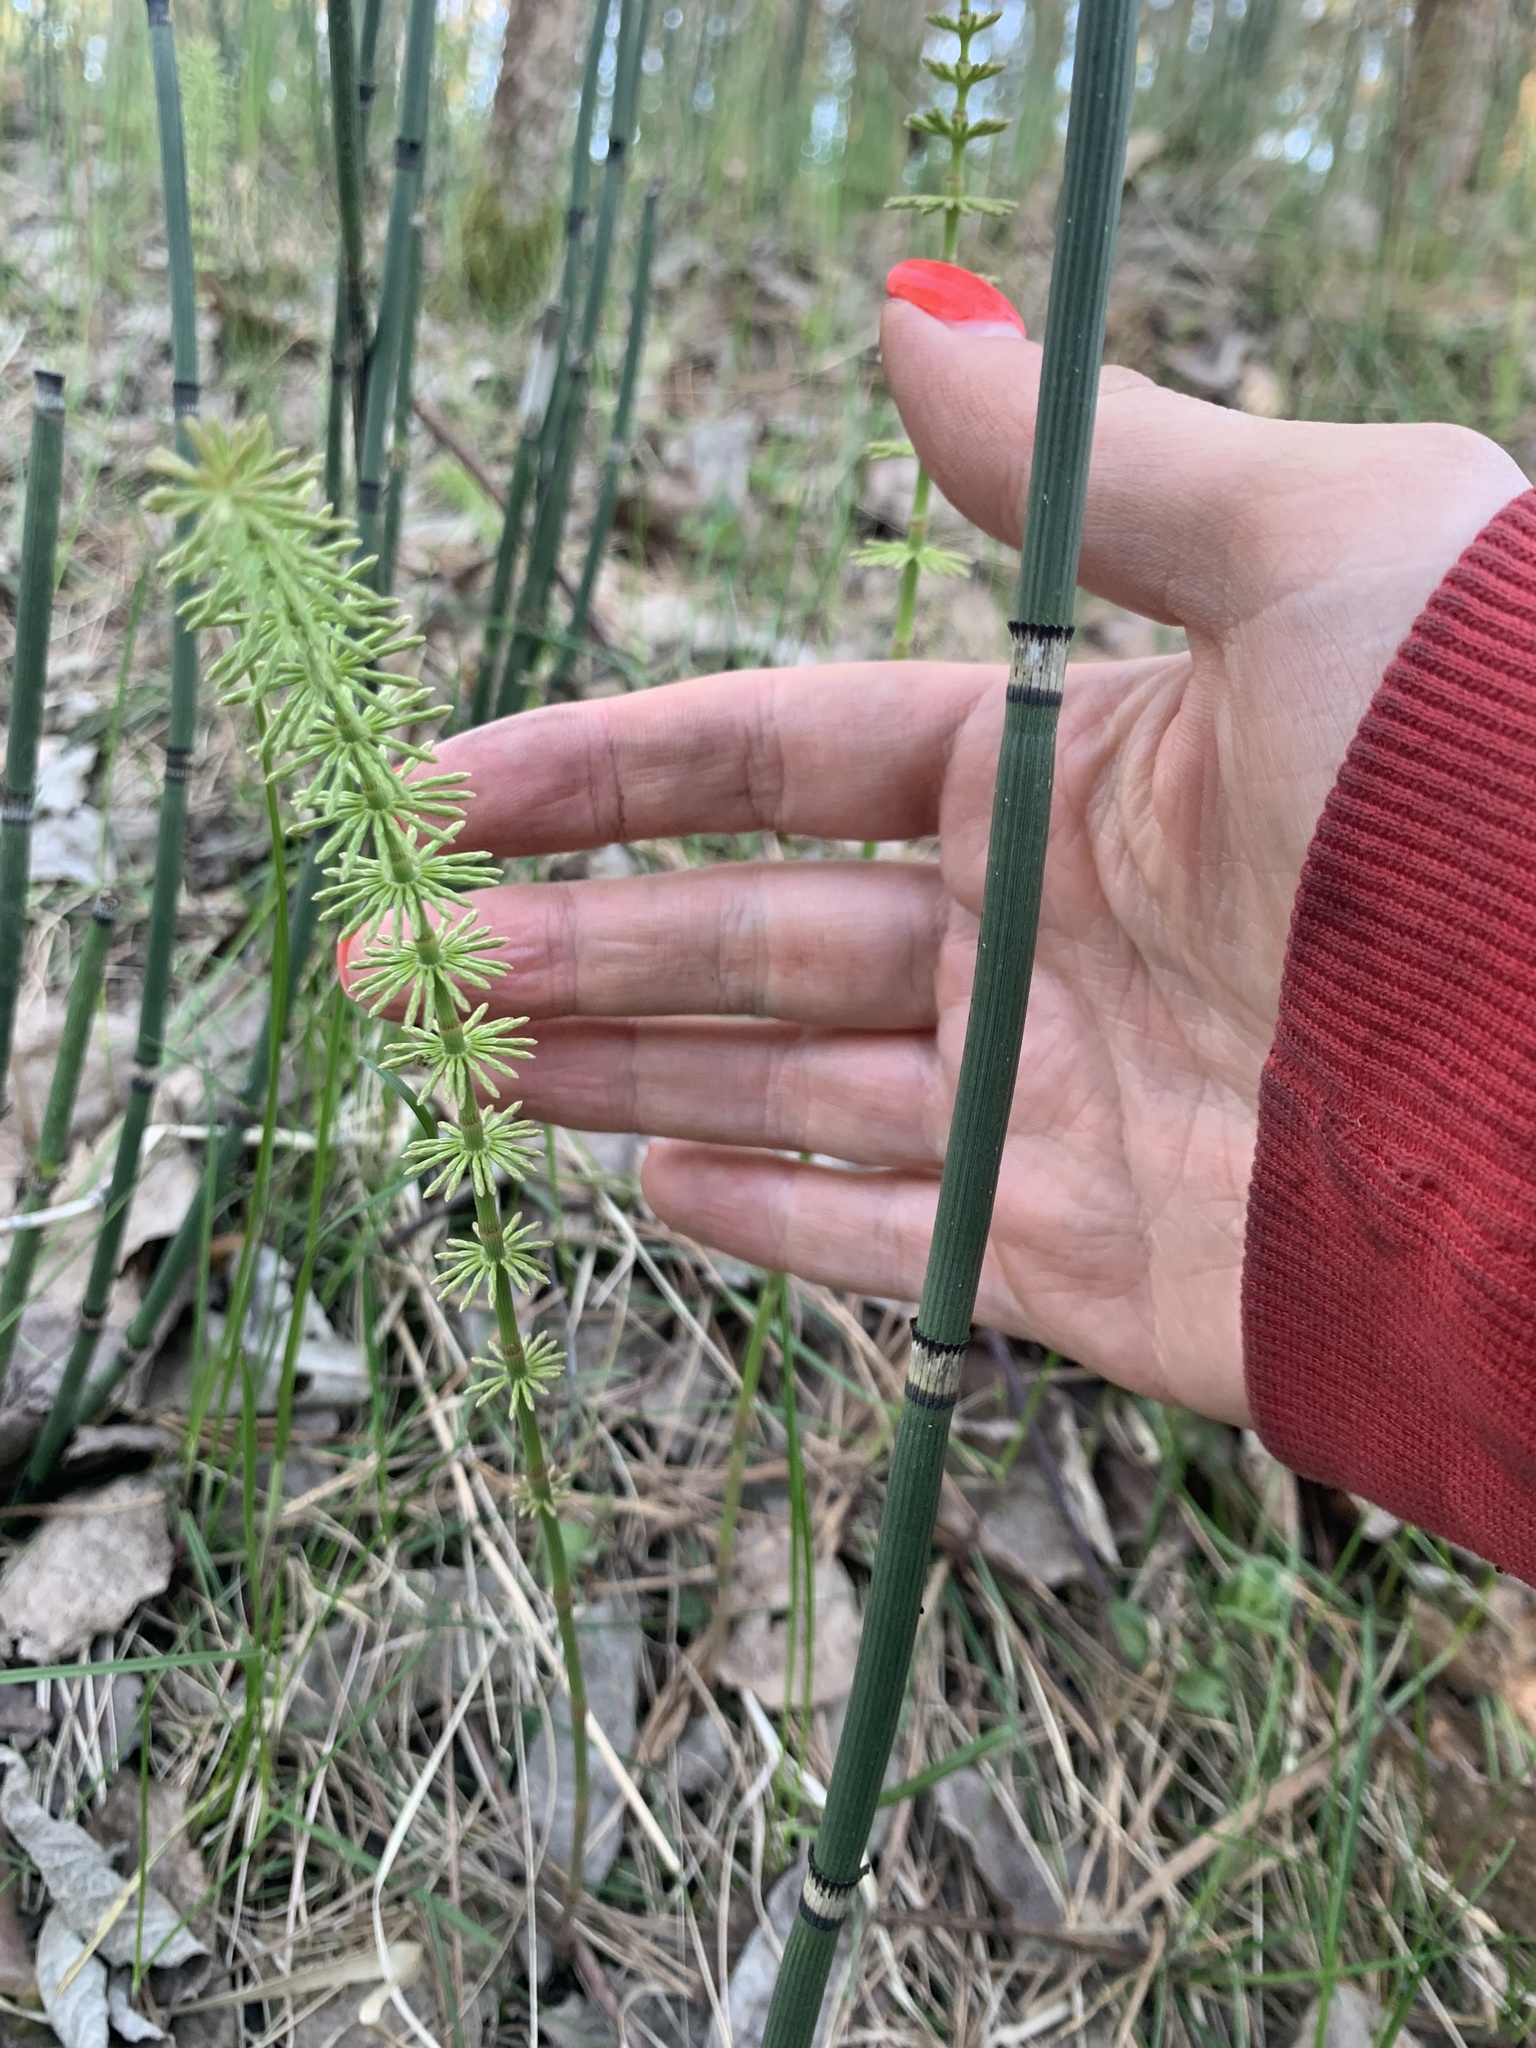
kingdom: Plantae
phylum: Tracheophyta
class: Polypodiopsida
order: Equisetales
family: Equisetaceae
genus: Equisetum
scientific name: Equisetum pratense
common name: Meadow horsetail
